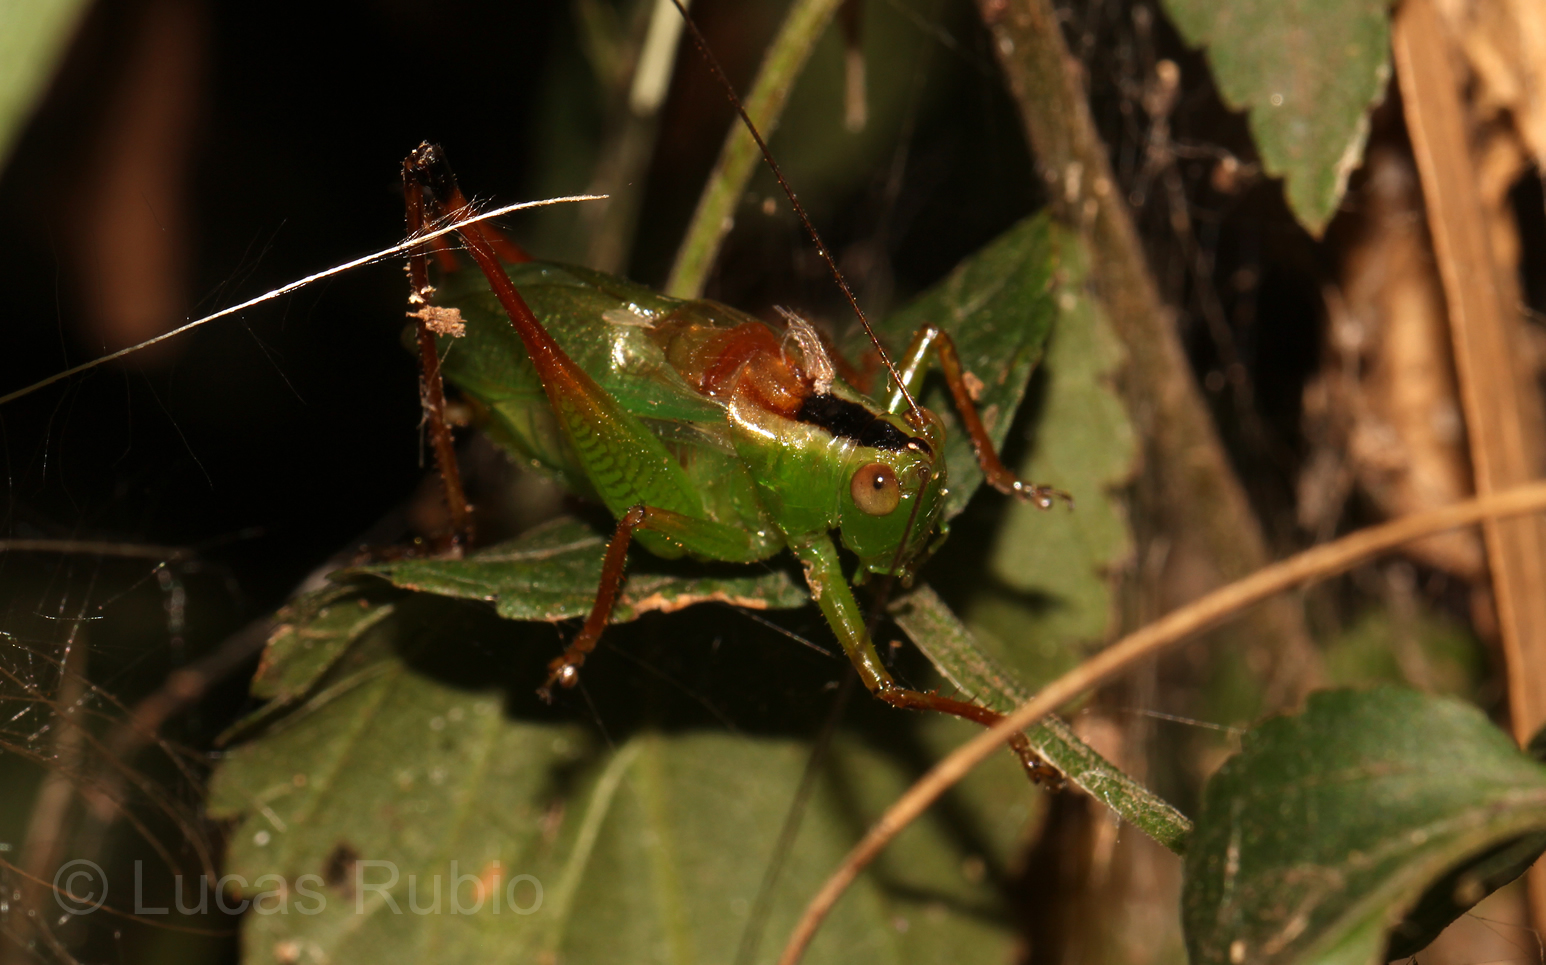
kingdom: Animalia
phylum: Arthropoda
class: Insecta
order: Orthoptera
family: Tettigoniidae
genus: Xiphelimum
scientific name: Xiphelimum amplipennis
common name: Clear-wing meadow katydid
